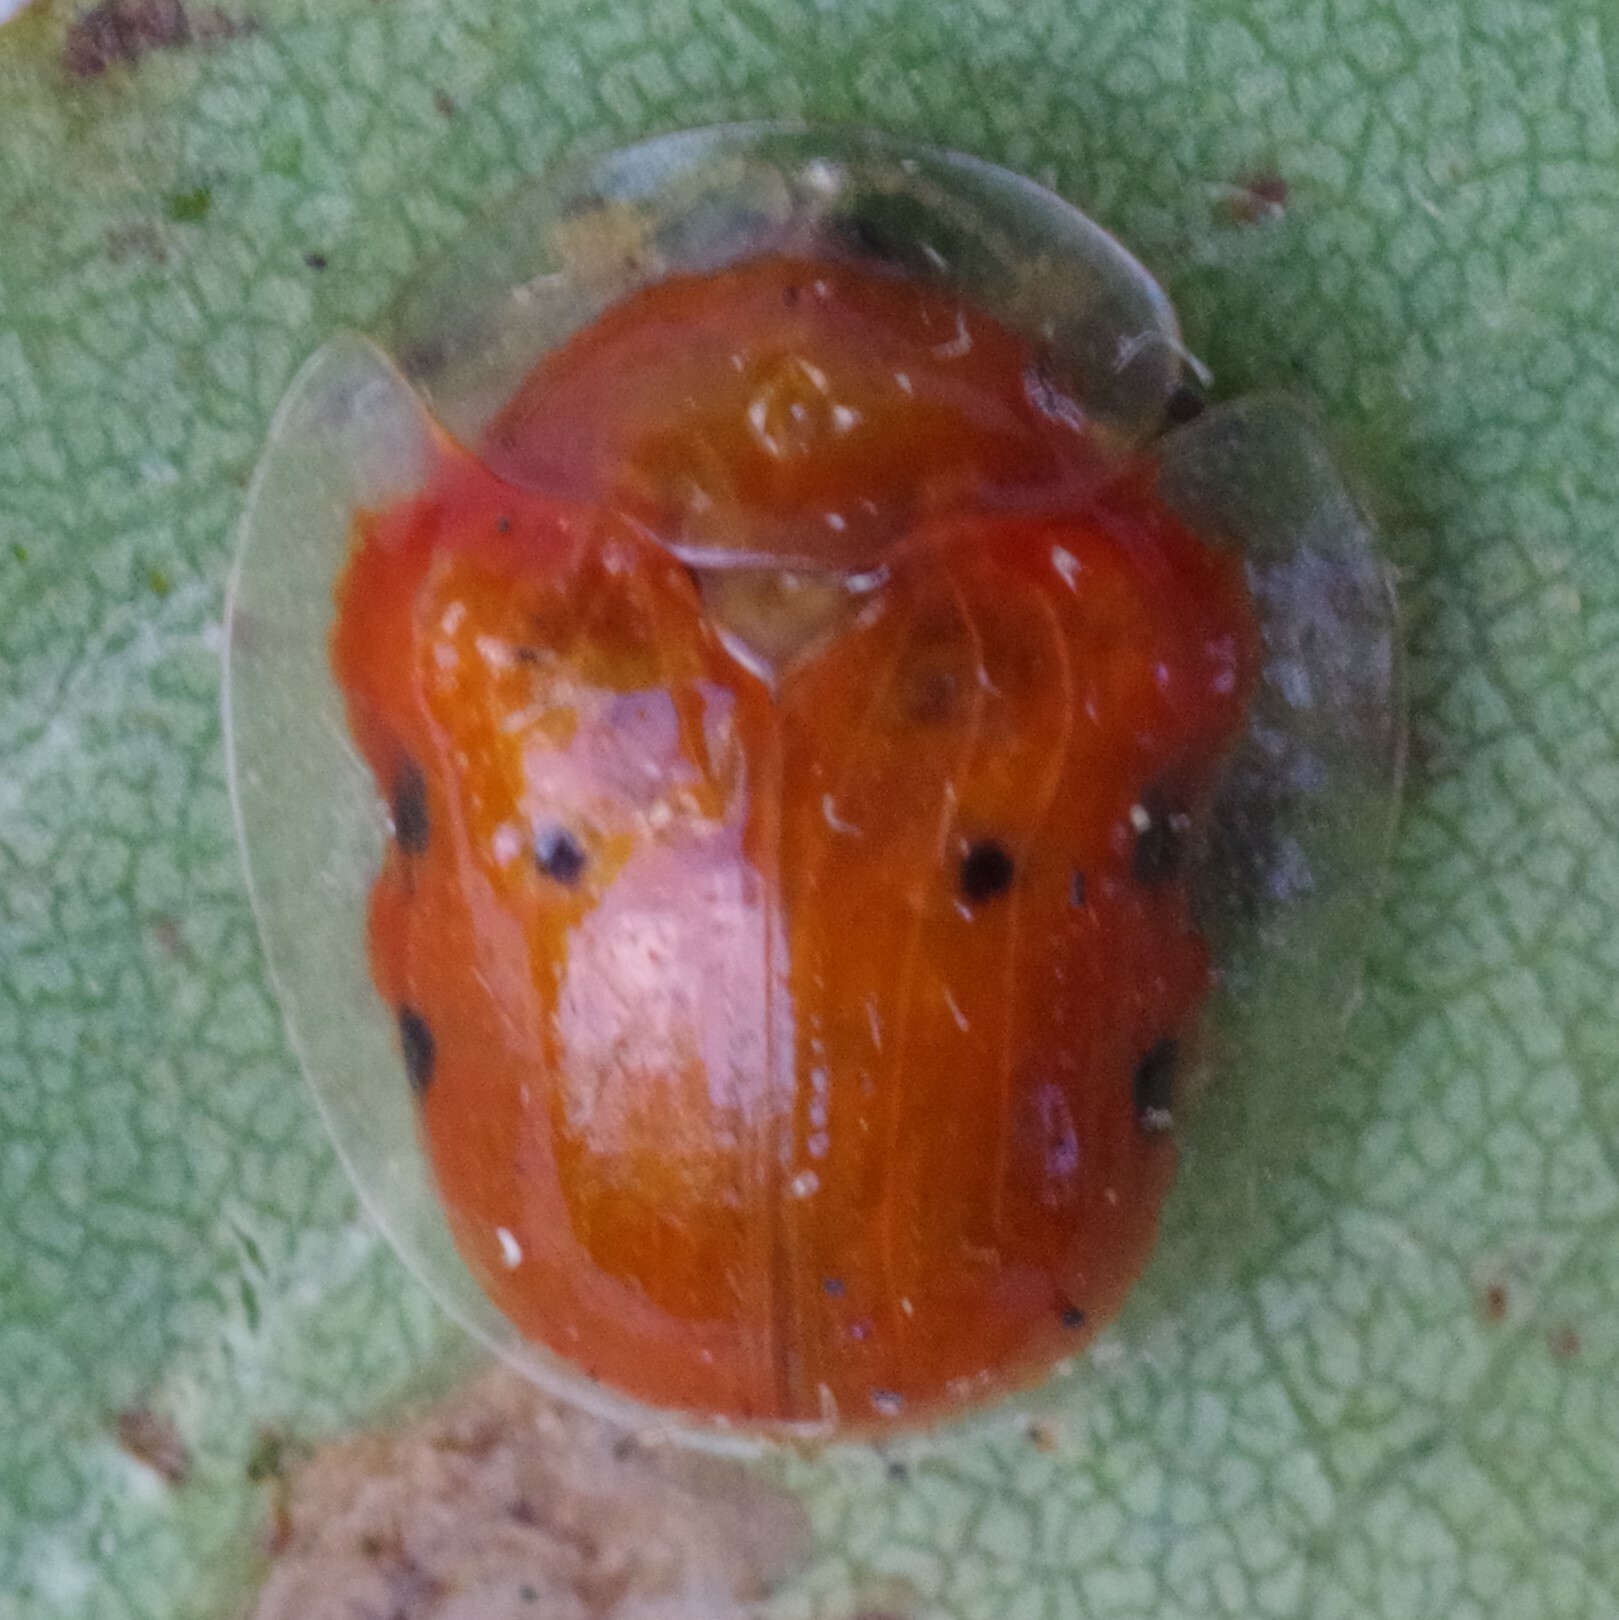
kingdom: Animalia
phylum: Arthropoda
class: Insecta
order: Coleoptera
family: Chrysomelidae
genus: Charidotella
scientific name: Charidotella sexpunctata
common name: Golden tortoise beetle
